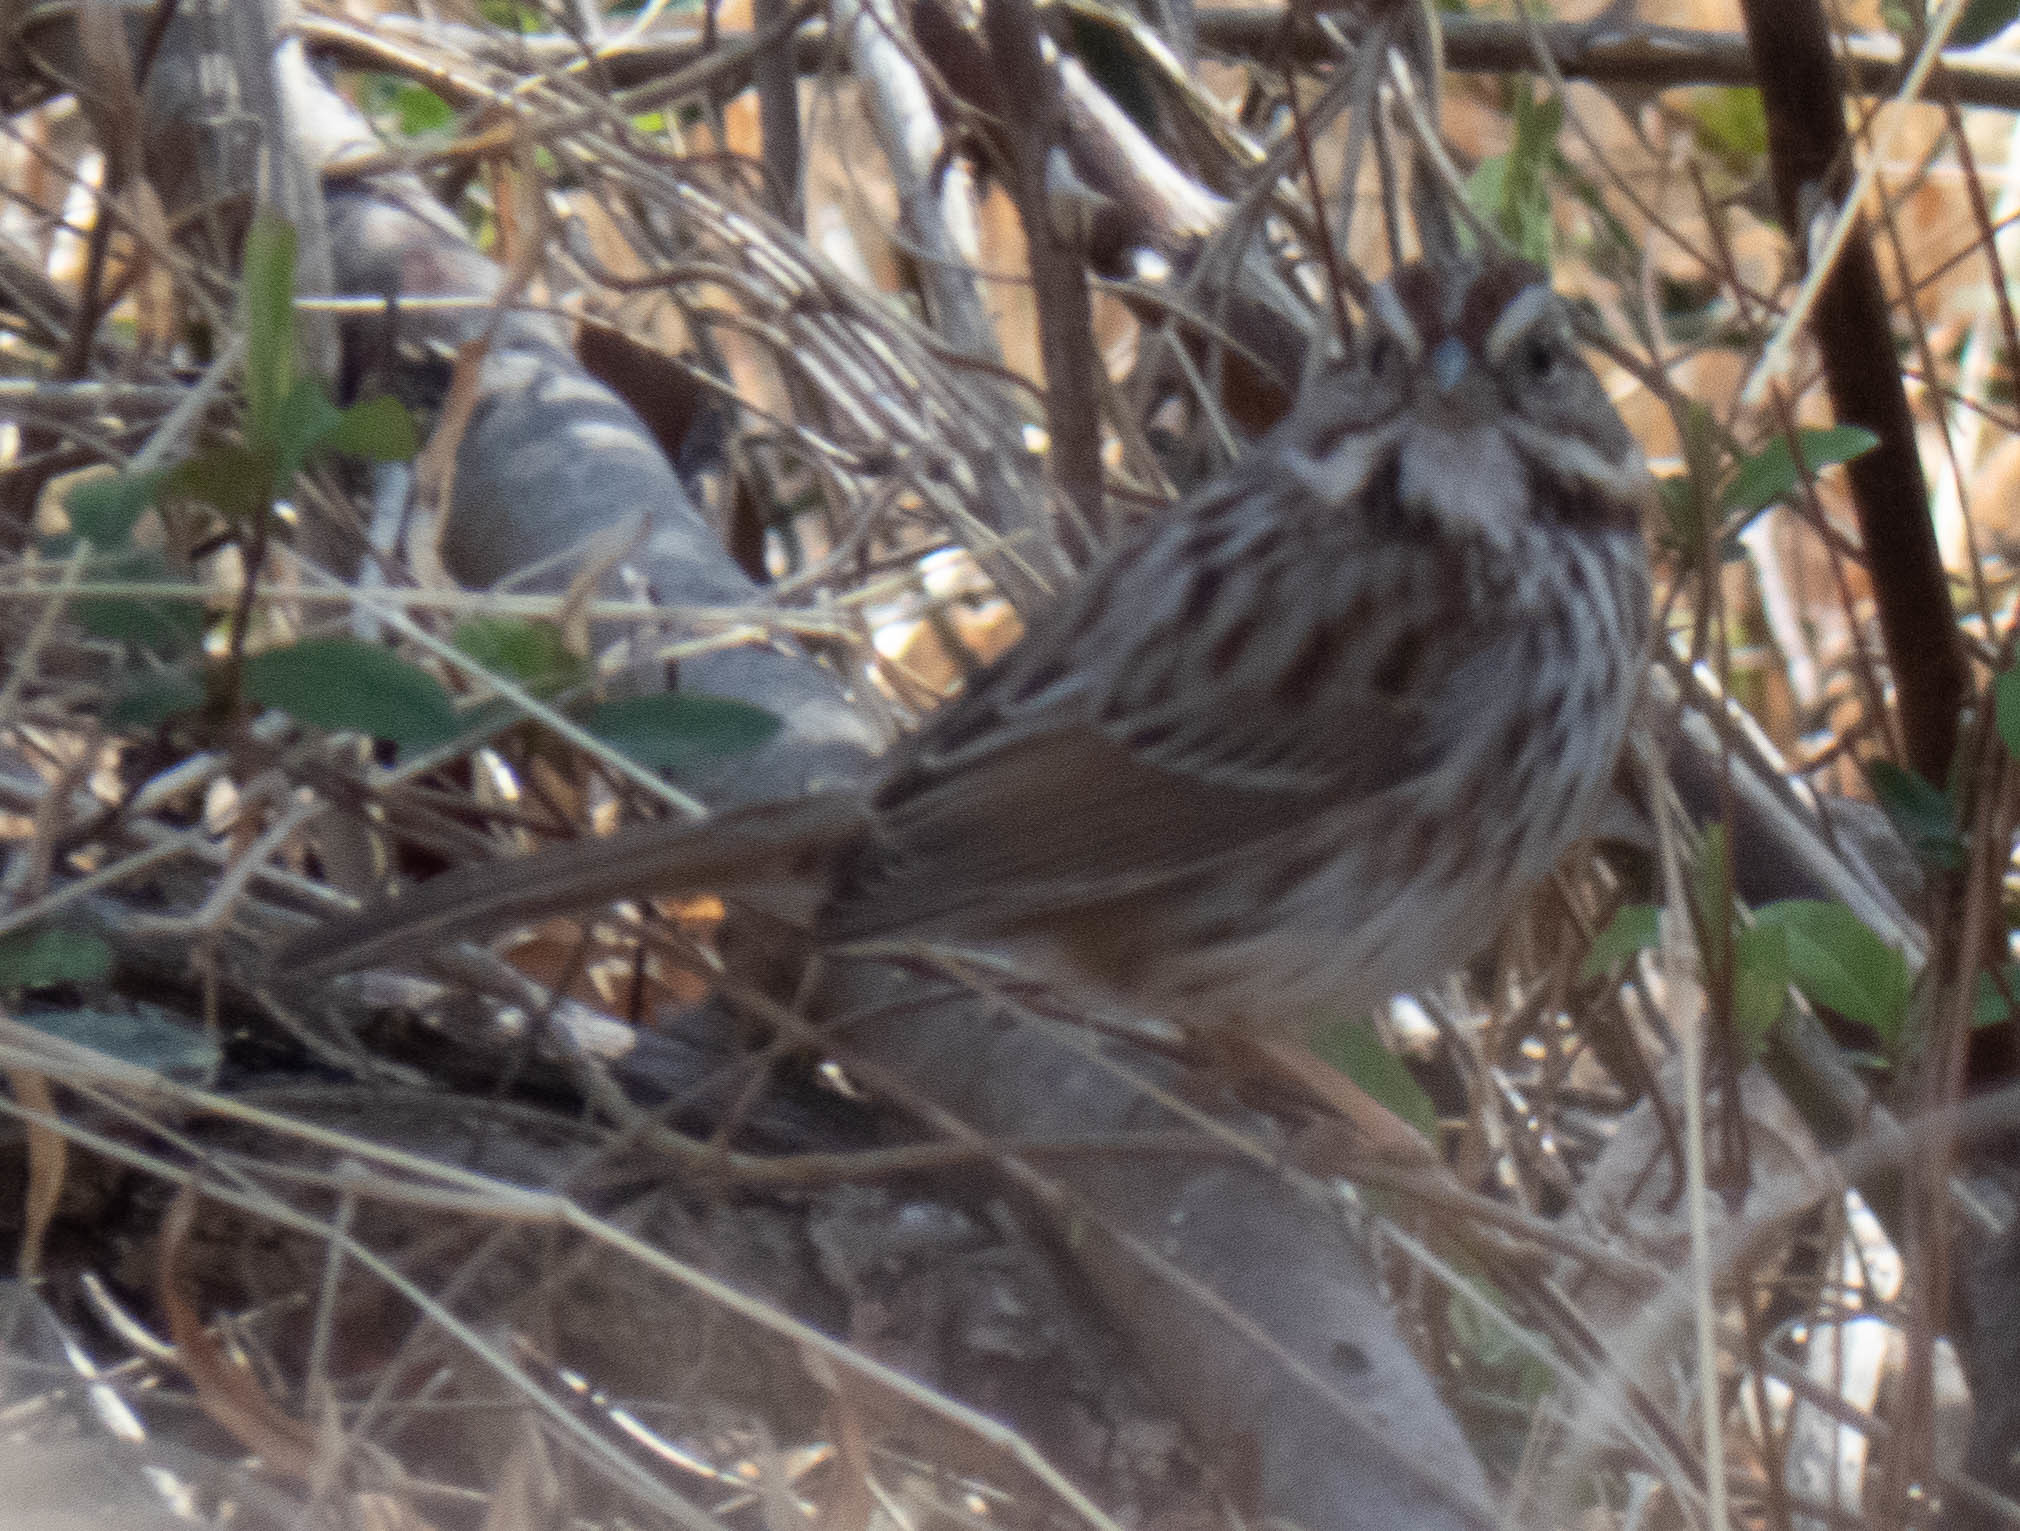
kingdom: Animalia
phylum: Chordata
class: Aves
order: Passeriformes
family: Passerellidae
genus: Melospiza
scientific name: Melospiza melodia
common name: Song sparrow
